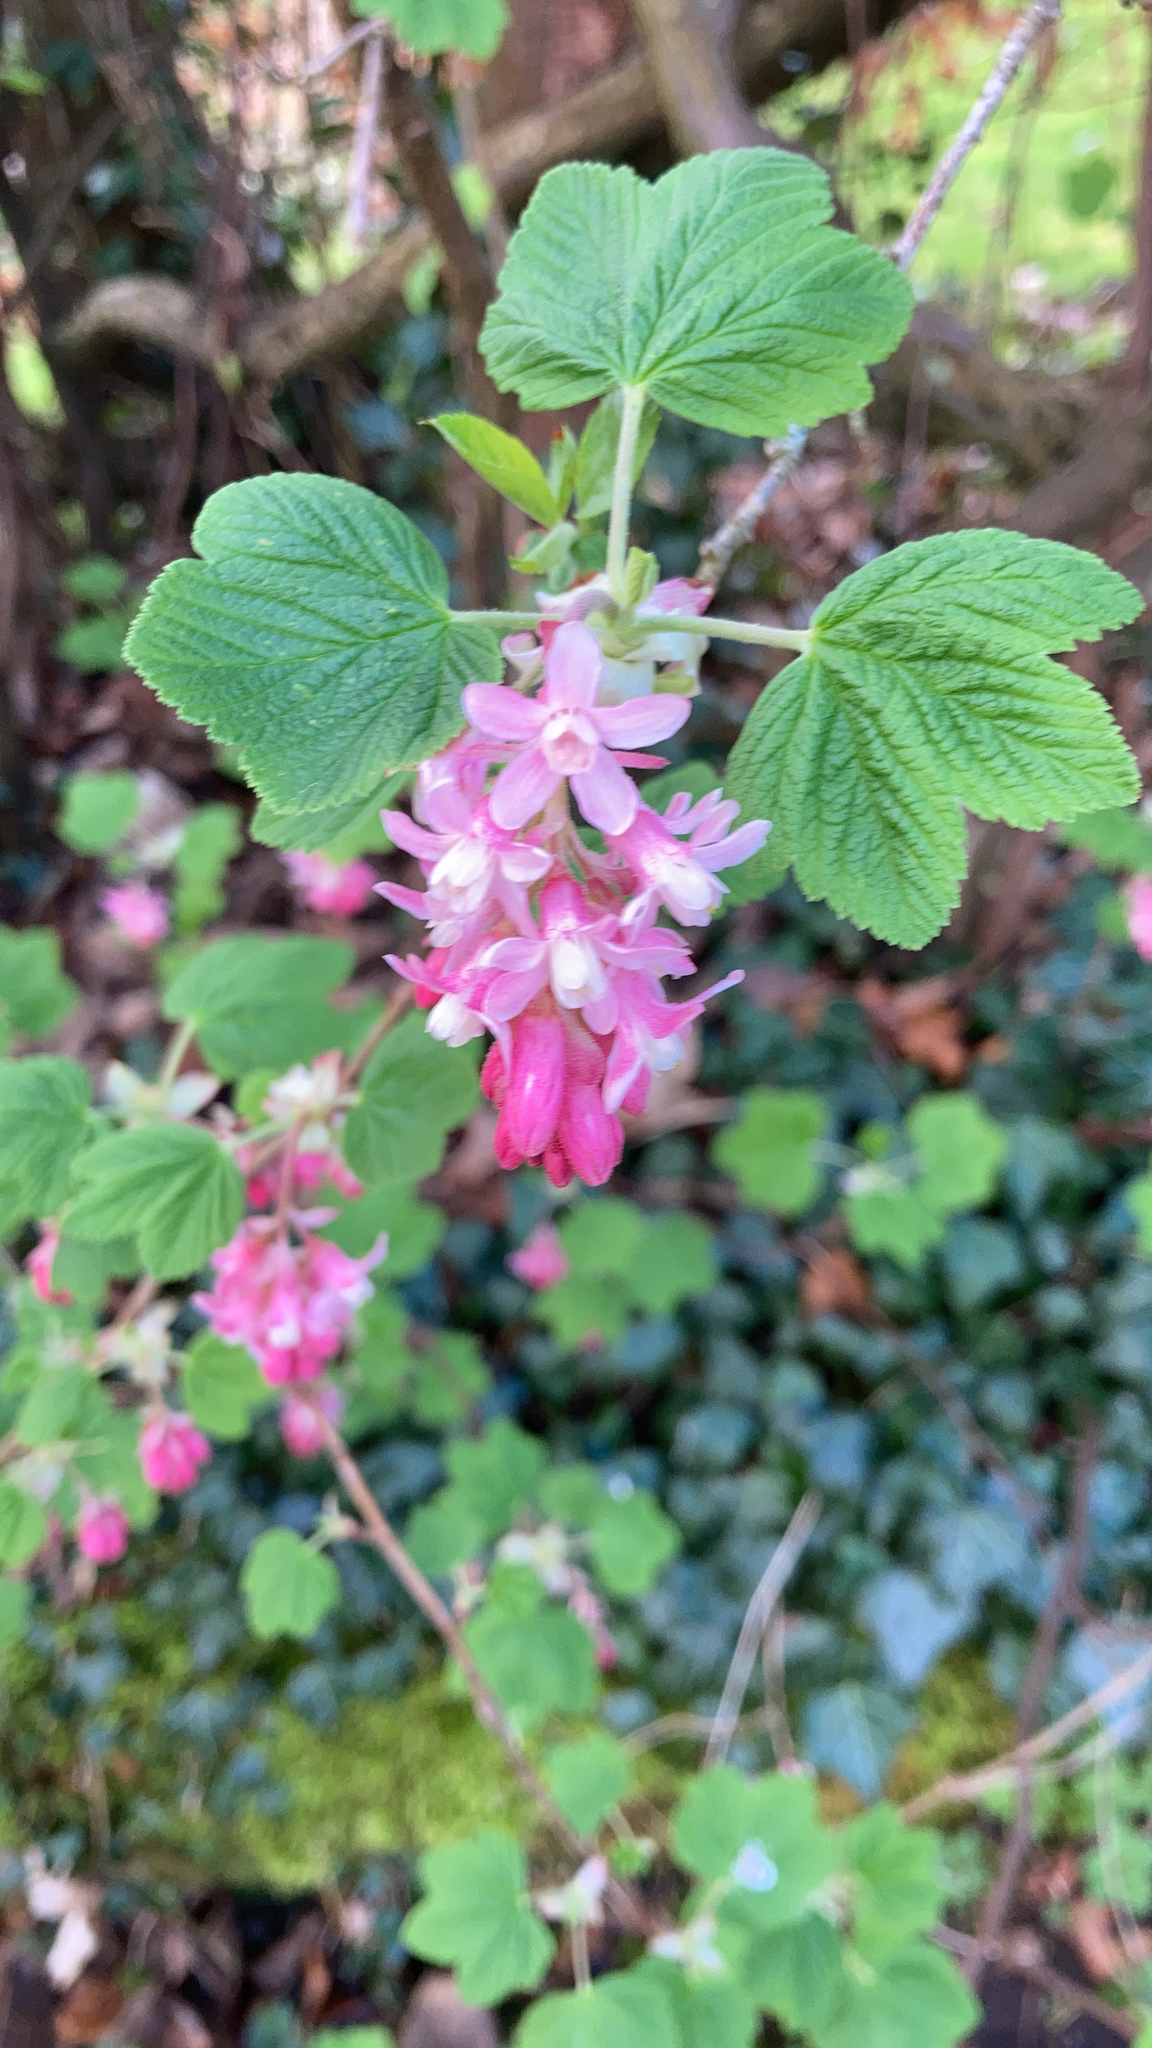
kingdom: Plantae
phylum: Tracheophyta
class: Magnoliopsida
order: Saxifragales
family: Grossulariaceae
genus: Ribes
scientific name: Ribes sanguineum
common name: Flowering currant
